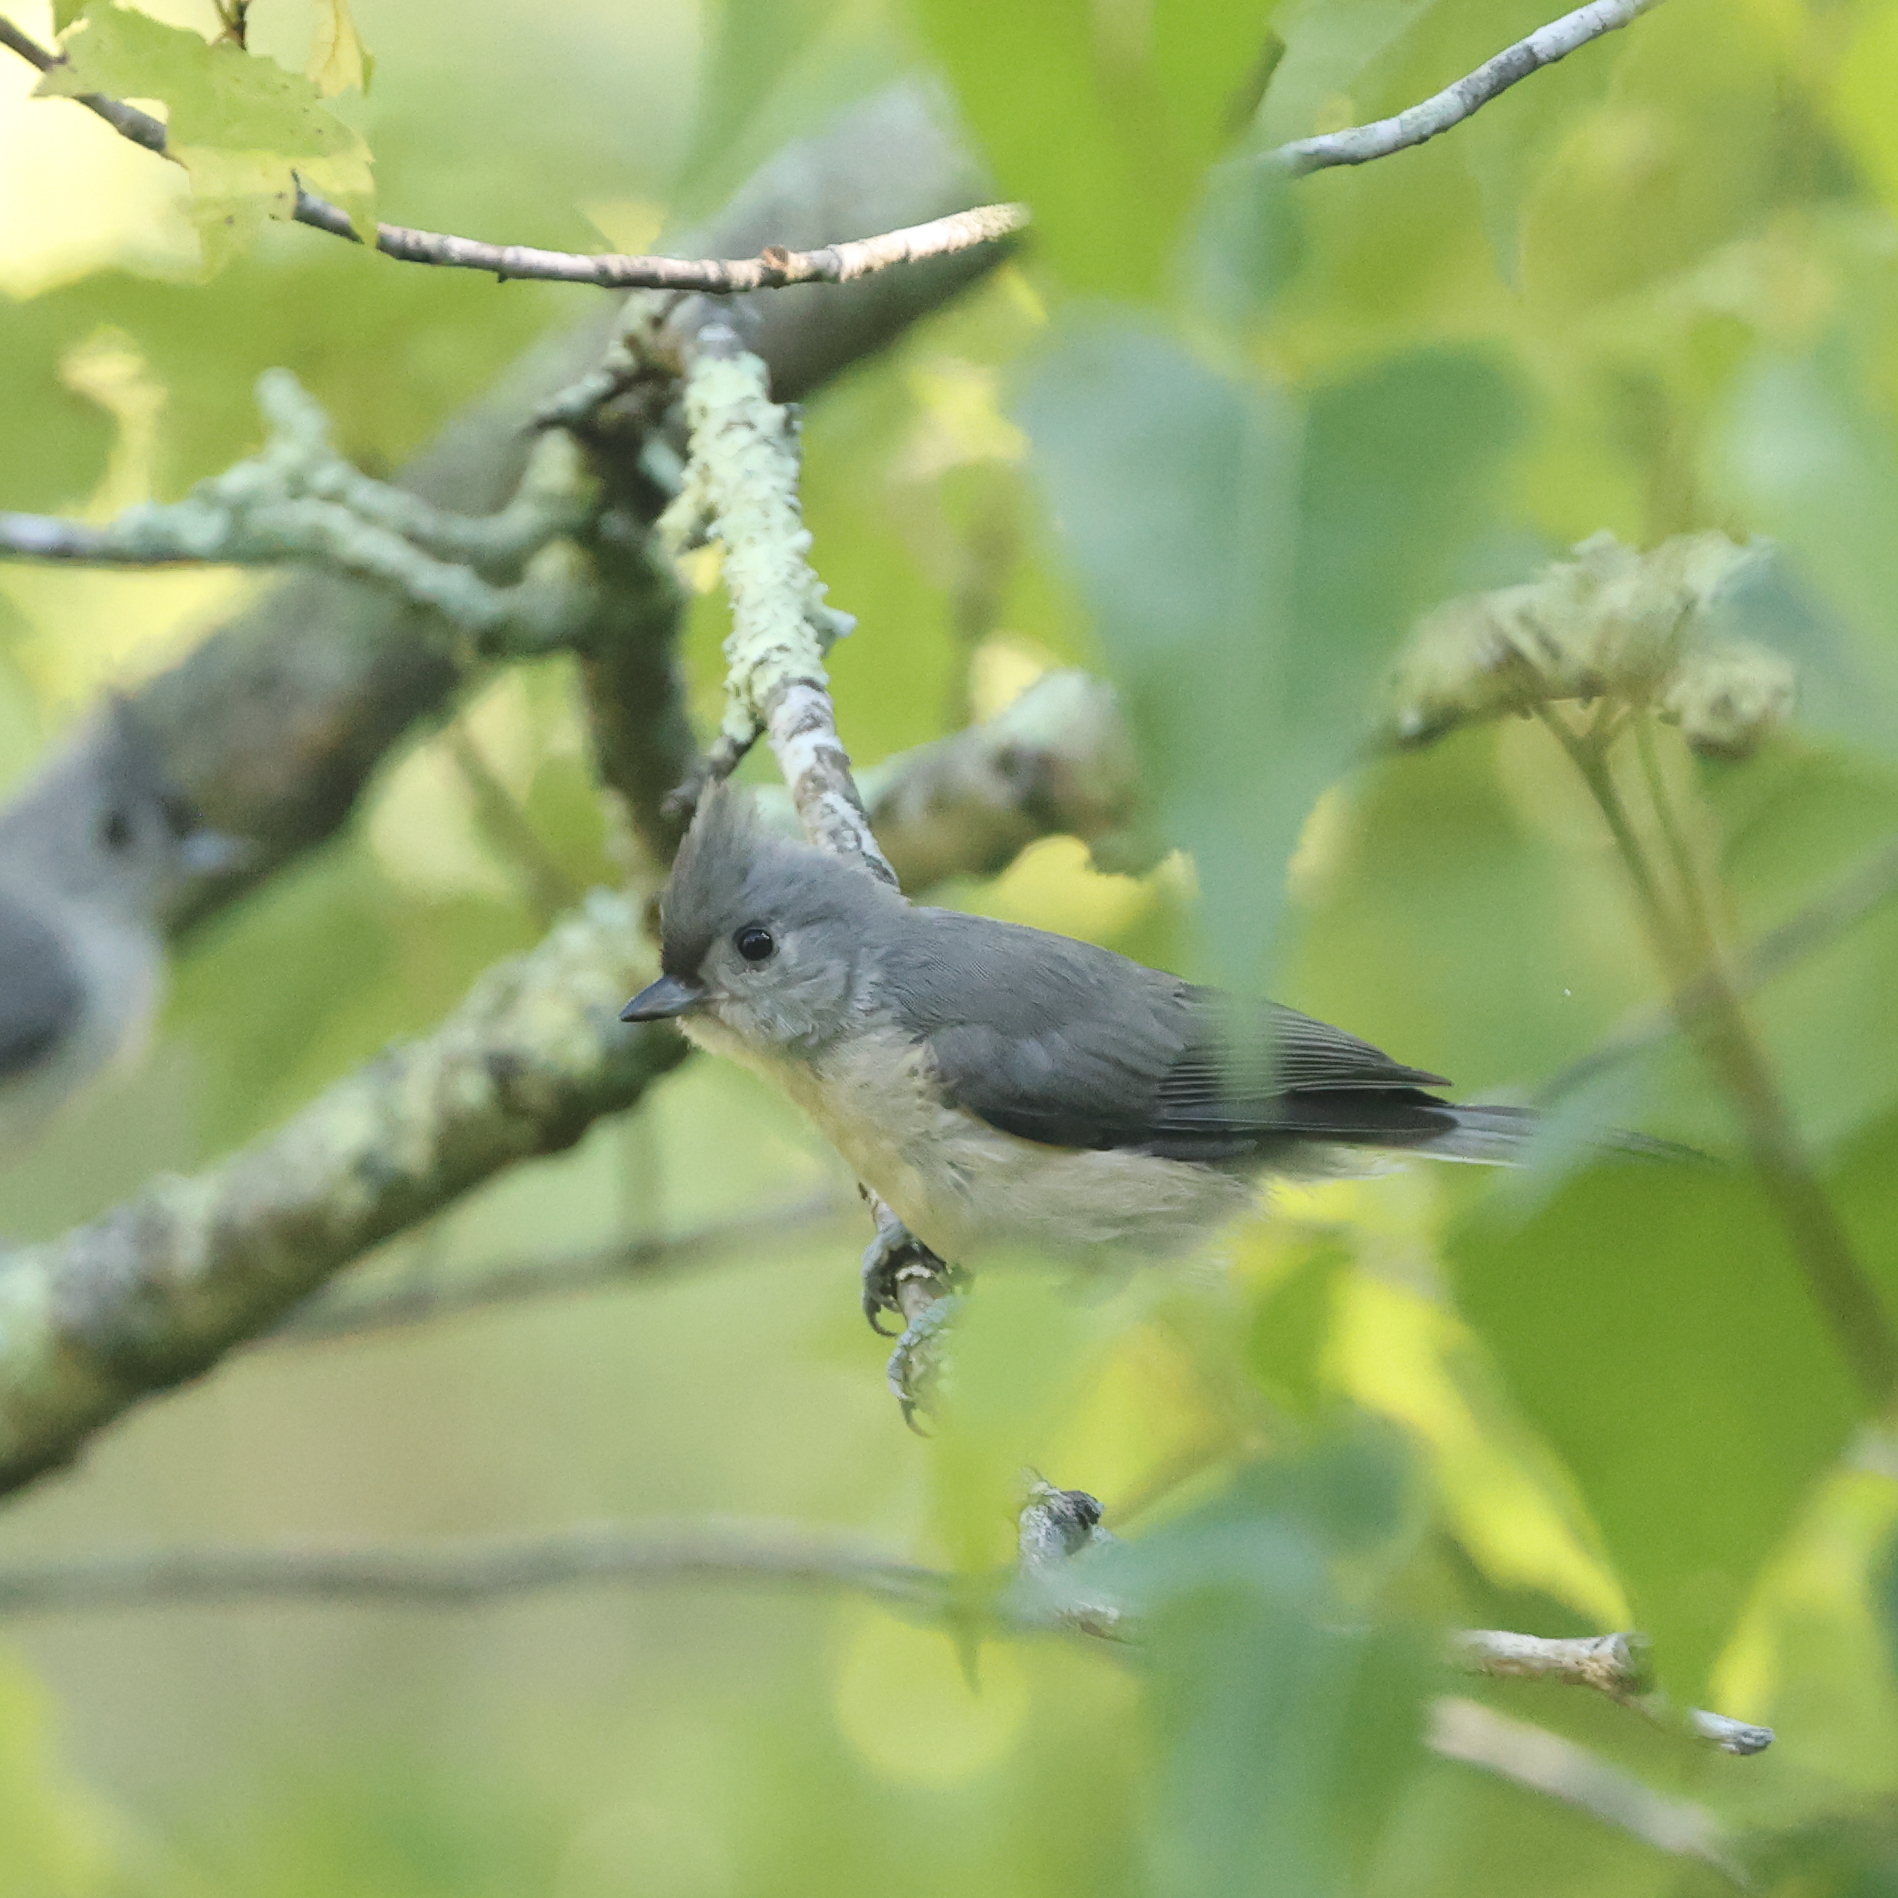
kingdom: Animalia
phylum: Chordata
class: Aves
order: Passeriformes
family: Paridae
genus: Baeolophus
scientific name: Baeolophus bicolor
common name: Tufted titmouse
